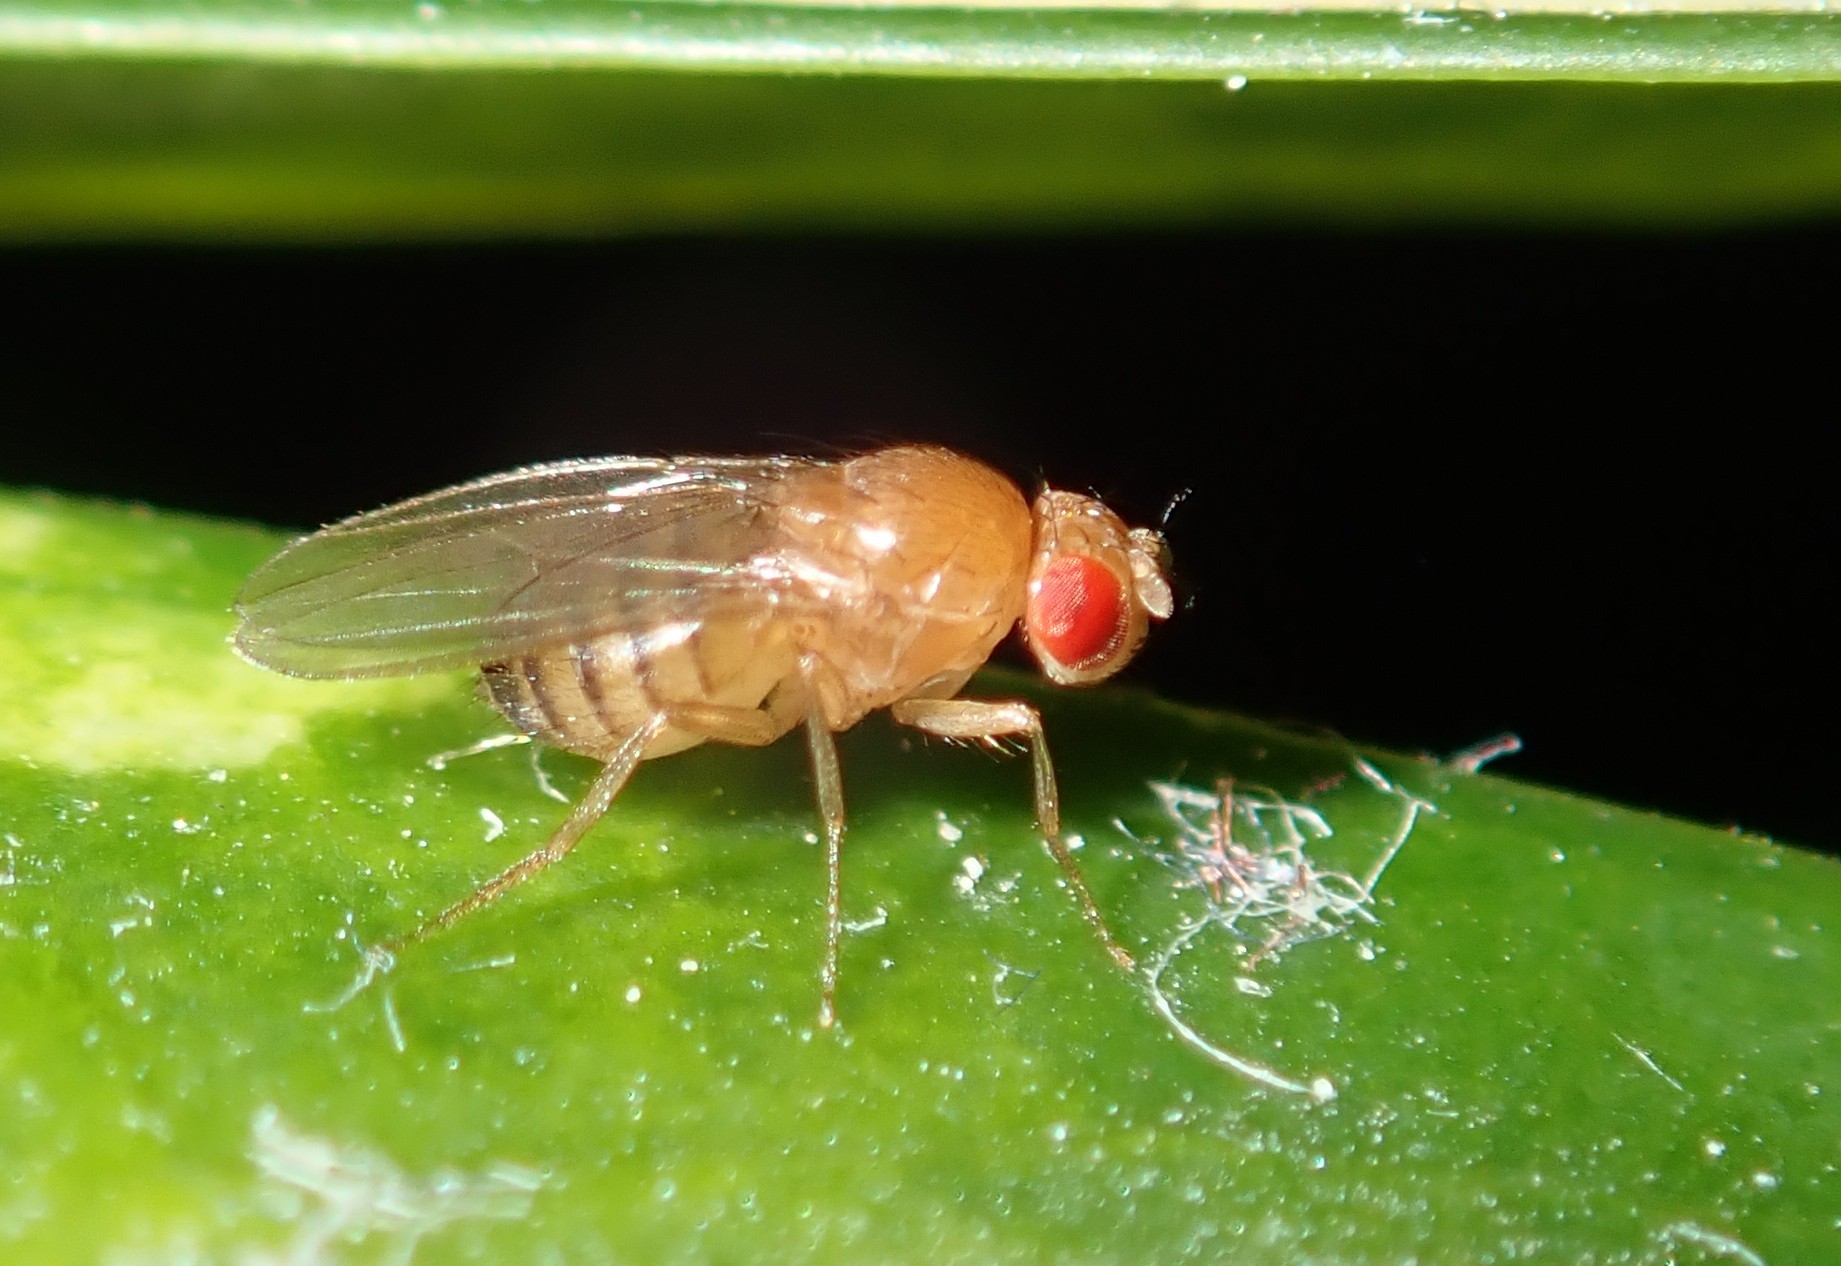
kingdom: Animalia
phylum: Arthropoda
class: Insecta
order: Diptera
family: Drosophilidae
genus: Drosophila
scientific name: Drosophila melanogaster
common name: Pomace fly
